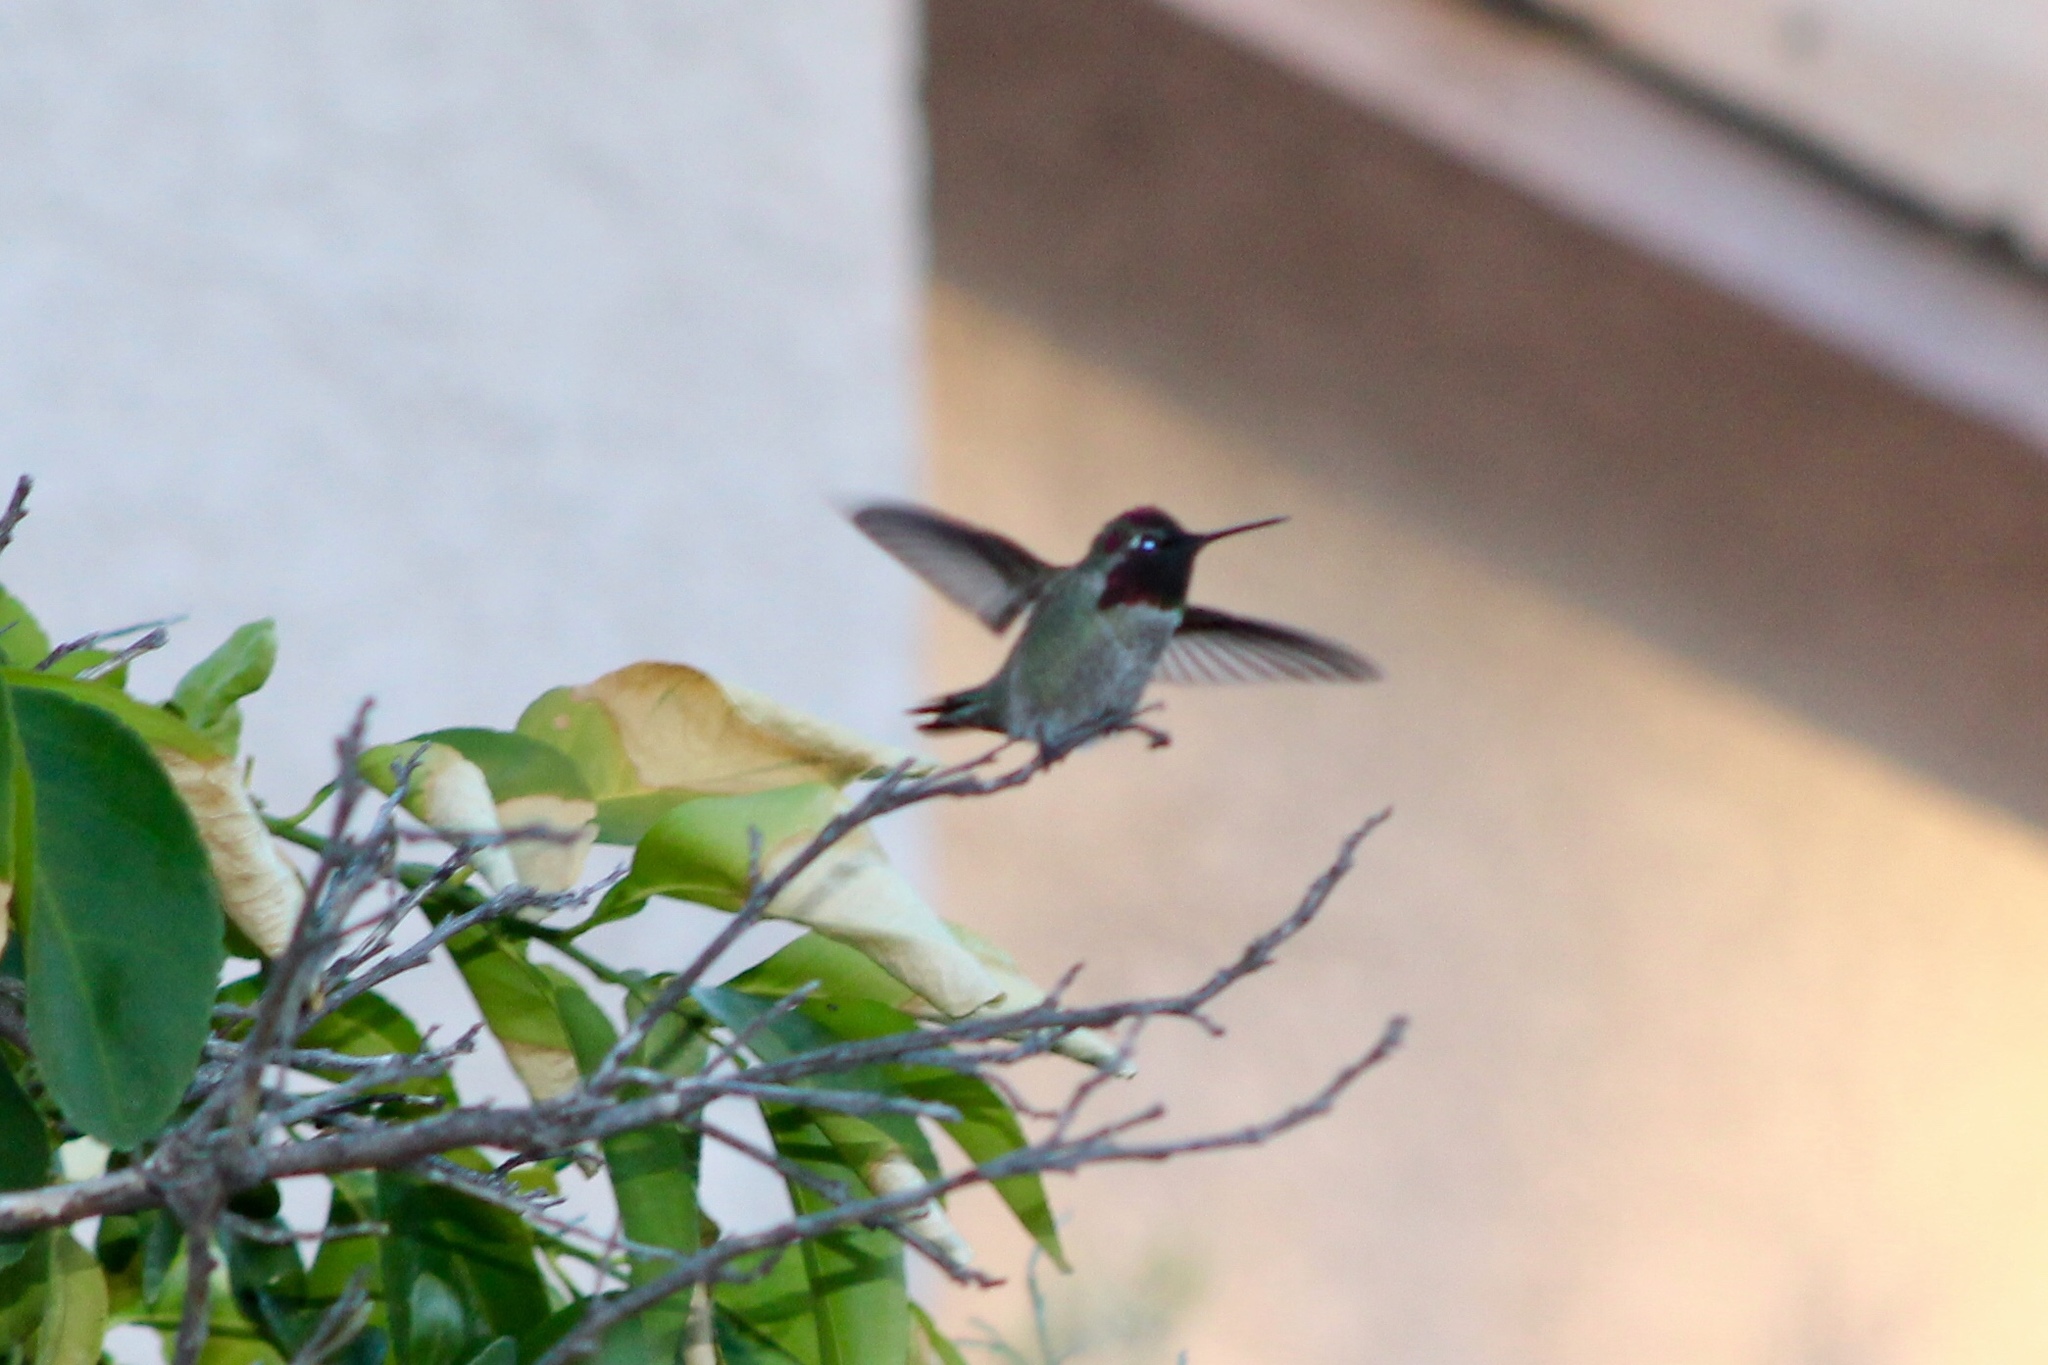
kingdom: Animalia
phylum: Chordata
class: Aves
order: Apodiformes
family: Trochilidae
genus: Calypte
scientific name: Calypte anna
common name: Anna's hummingbird
